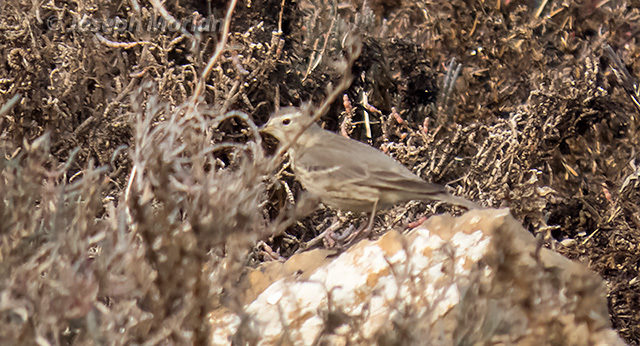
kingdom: Animalia
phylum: Chordata
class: Aves
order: Passeriformes
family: Motacillidae
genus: Anthus
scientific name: Anthus rubescens
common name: Buff-bellied pipit
